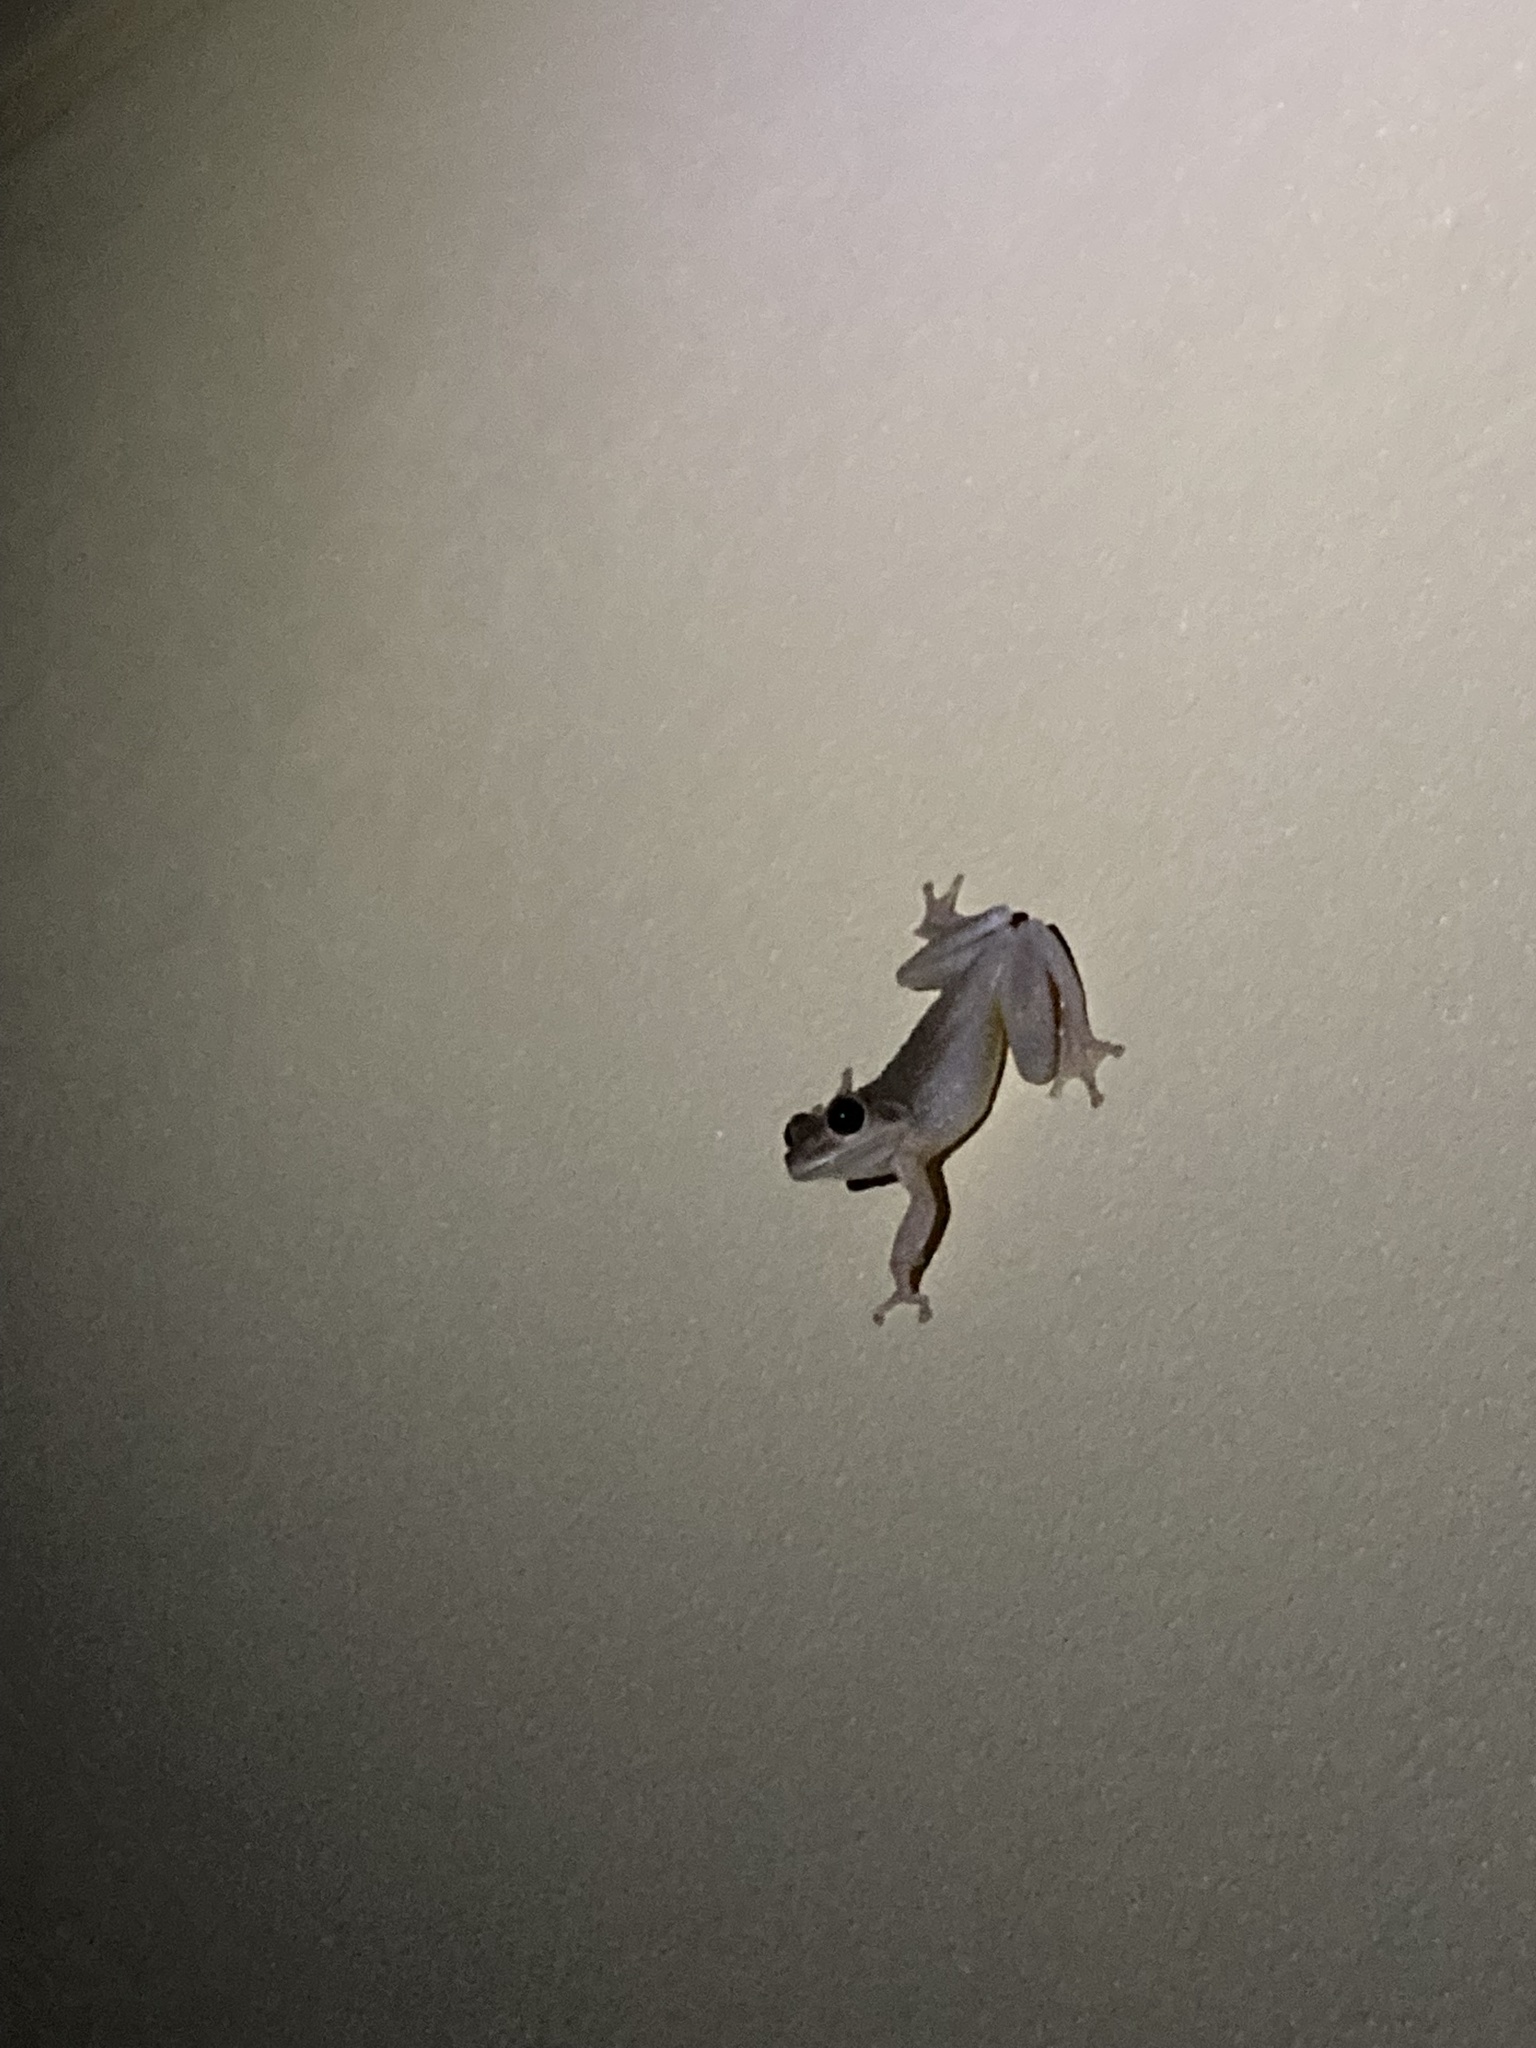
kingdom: Animalia
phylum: Chordata
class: Amphibia
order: Anura
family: Hylidae
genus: Osteopilus
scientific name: Osteopilus septentrionalis
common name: Cuban treefrog
